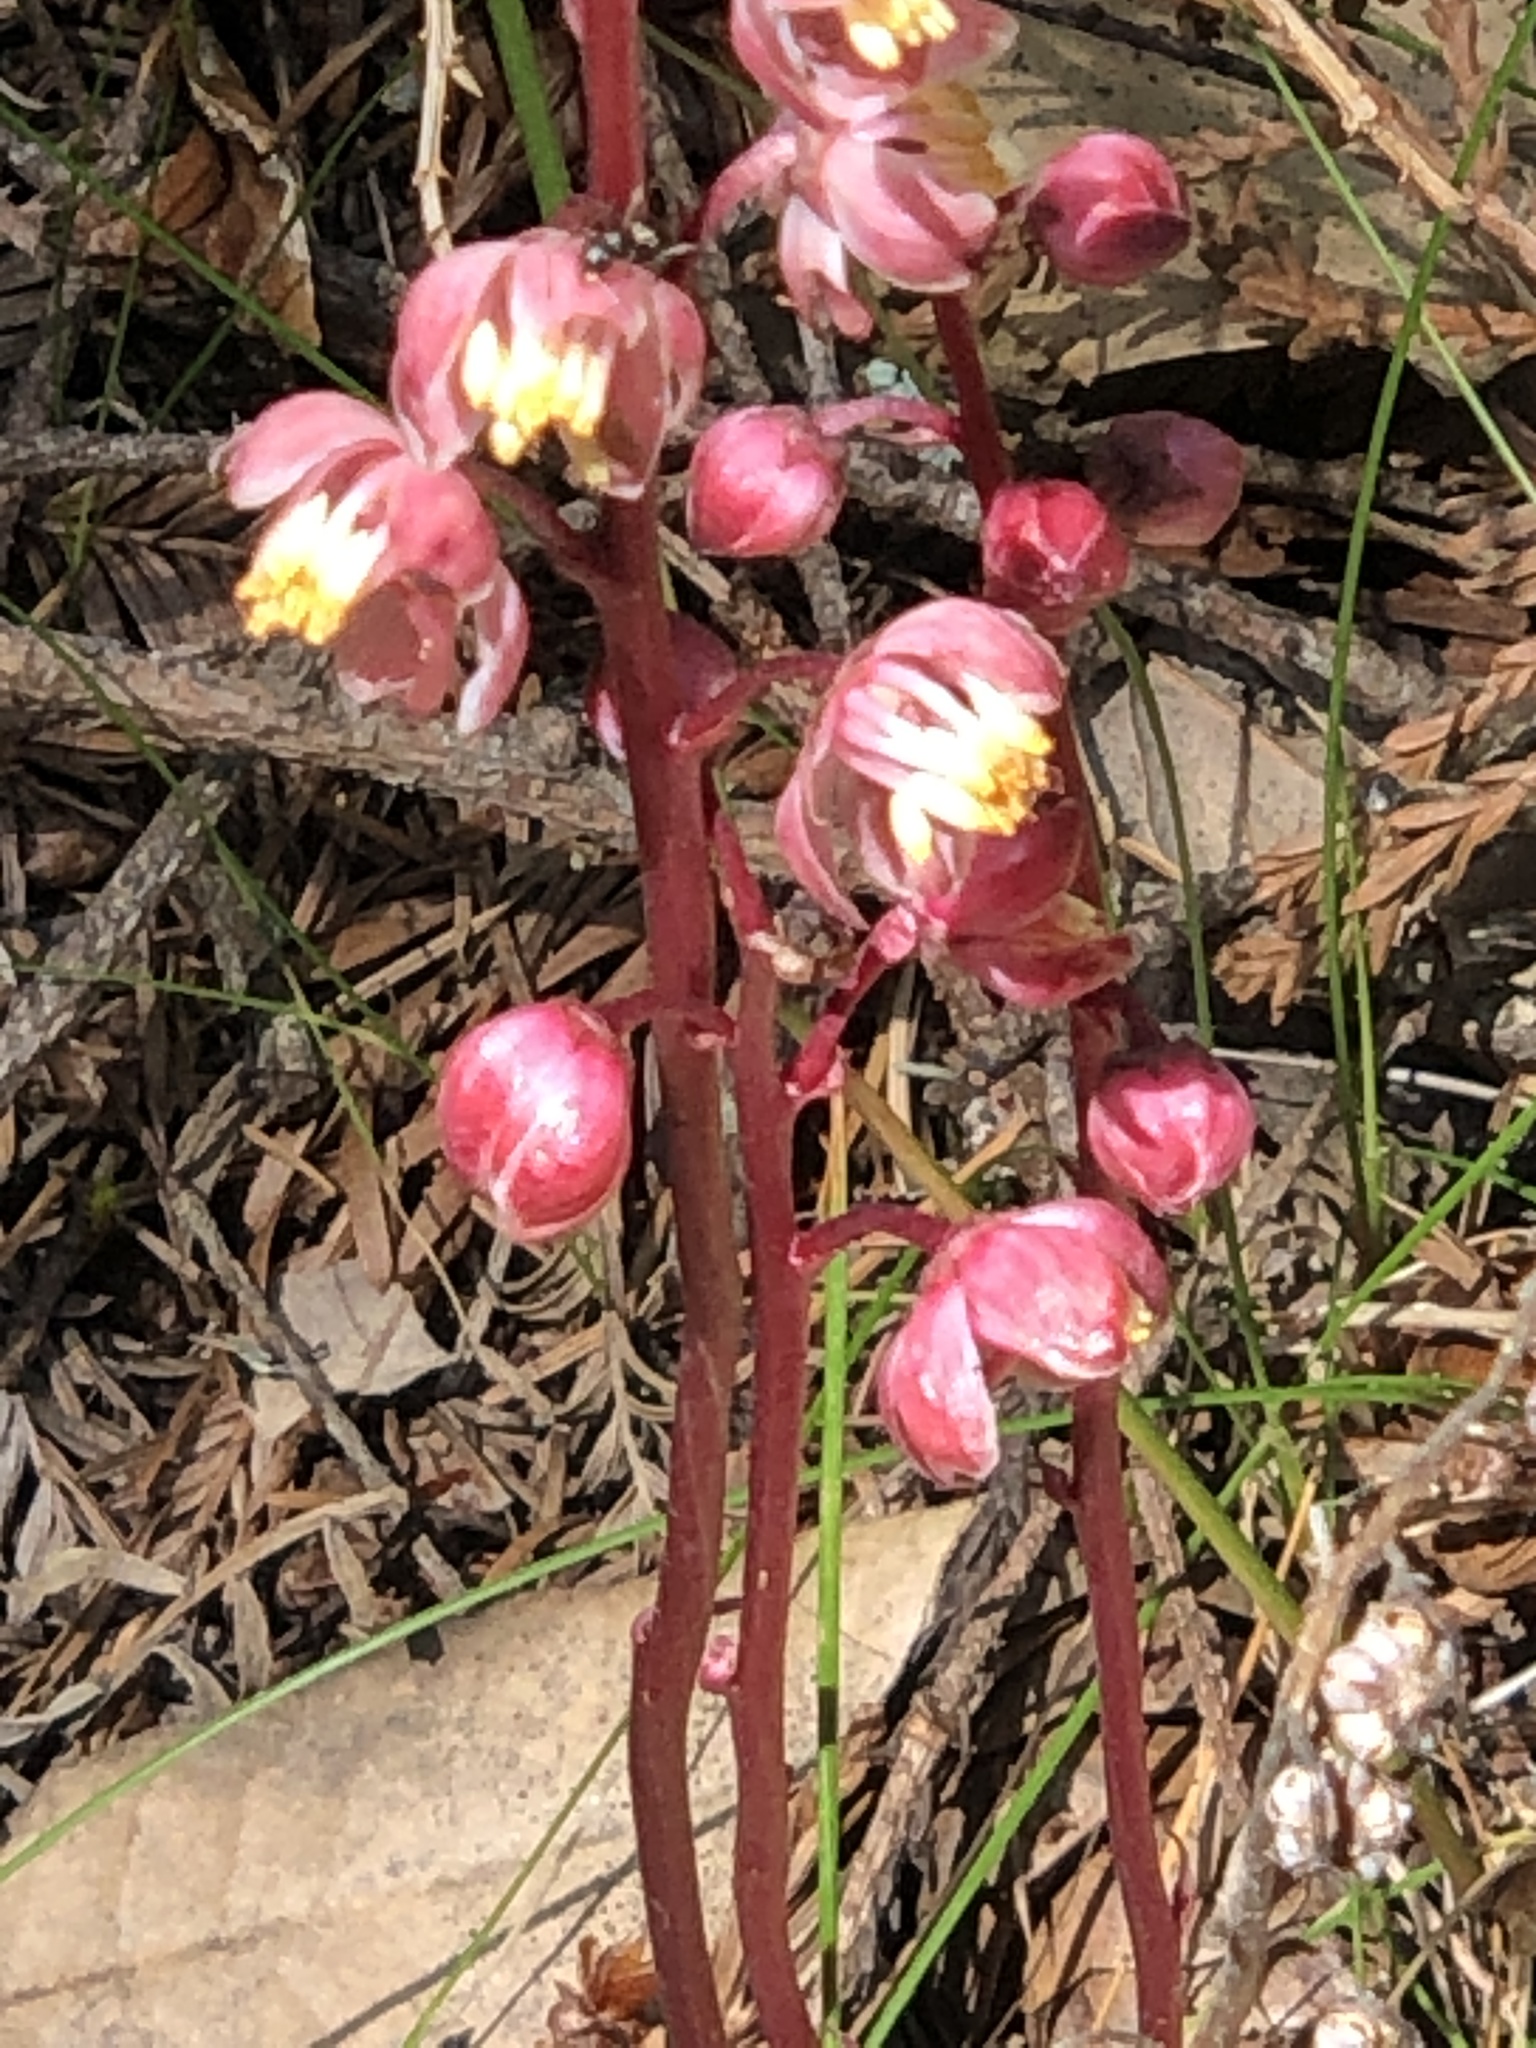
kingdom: Plantae
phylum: Tracheophyta
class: Magnoliopsida
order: Ericales
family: Ericaceae
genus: Pyrola
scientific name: Pyrola aphylla
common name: Leafless wintergreen
